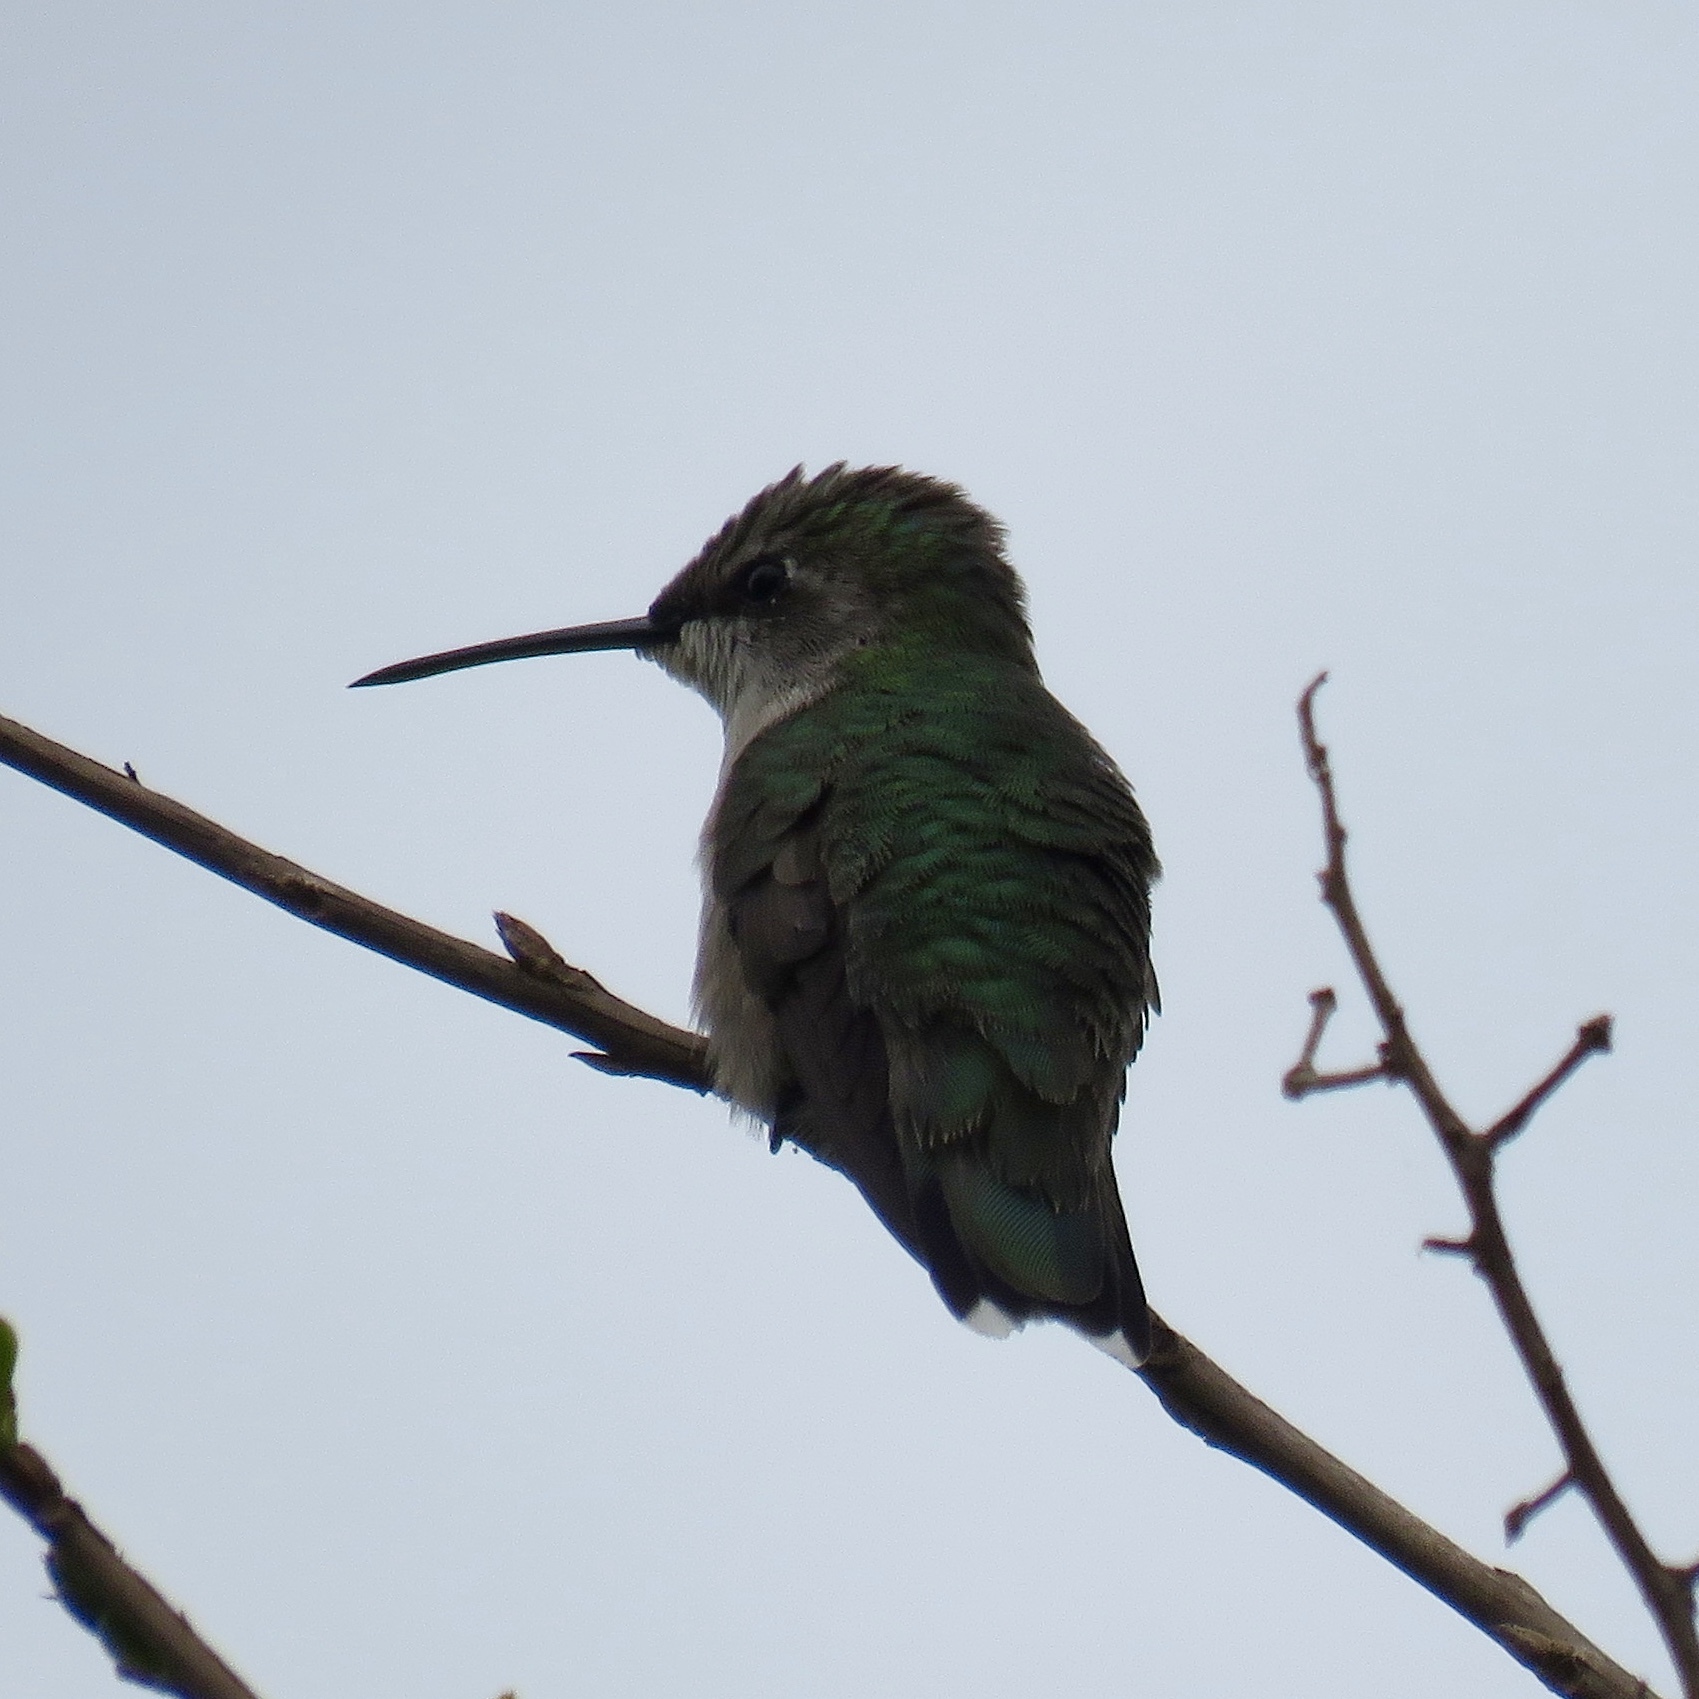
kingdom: Animalia
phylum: Chordata
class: Aves
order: Apodiformes
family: Trochilidae
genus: Archilochus
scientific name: Archilochus colubris
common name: Ruby-throated hummingbird
